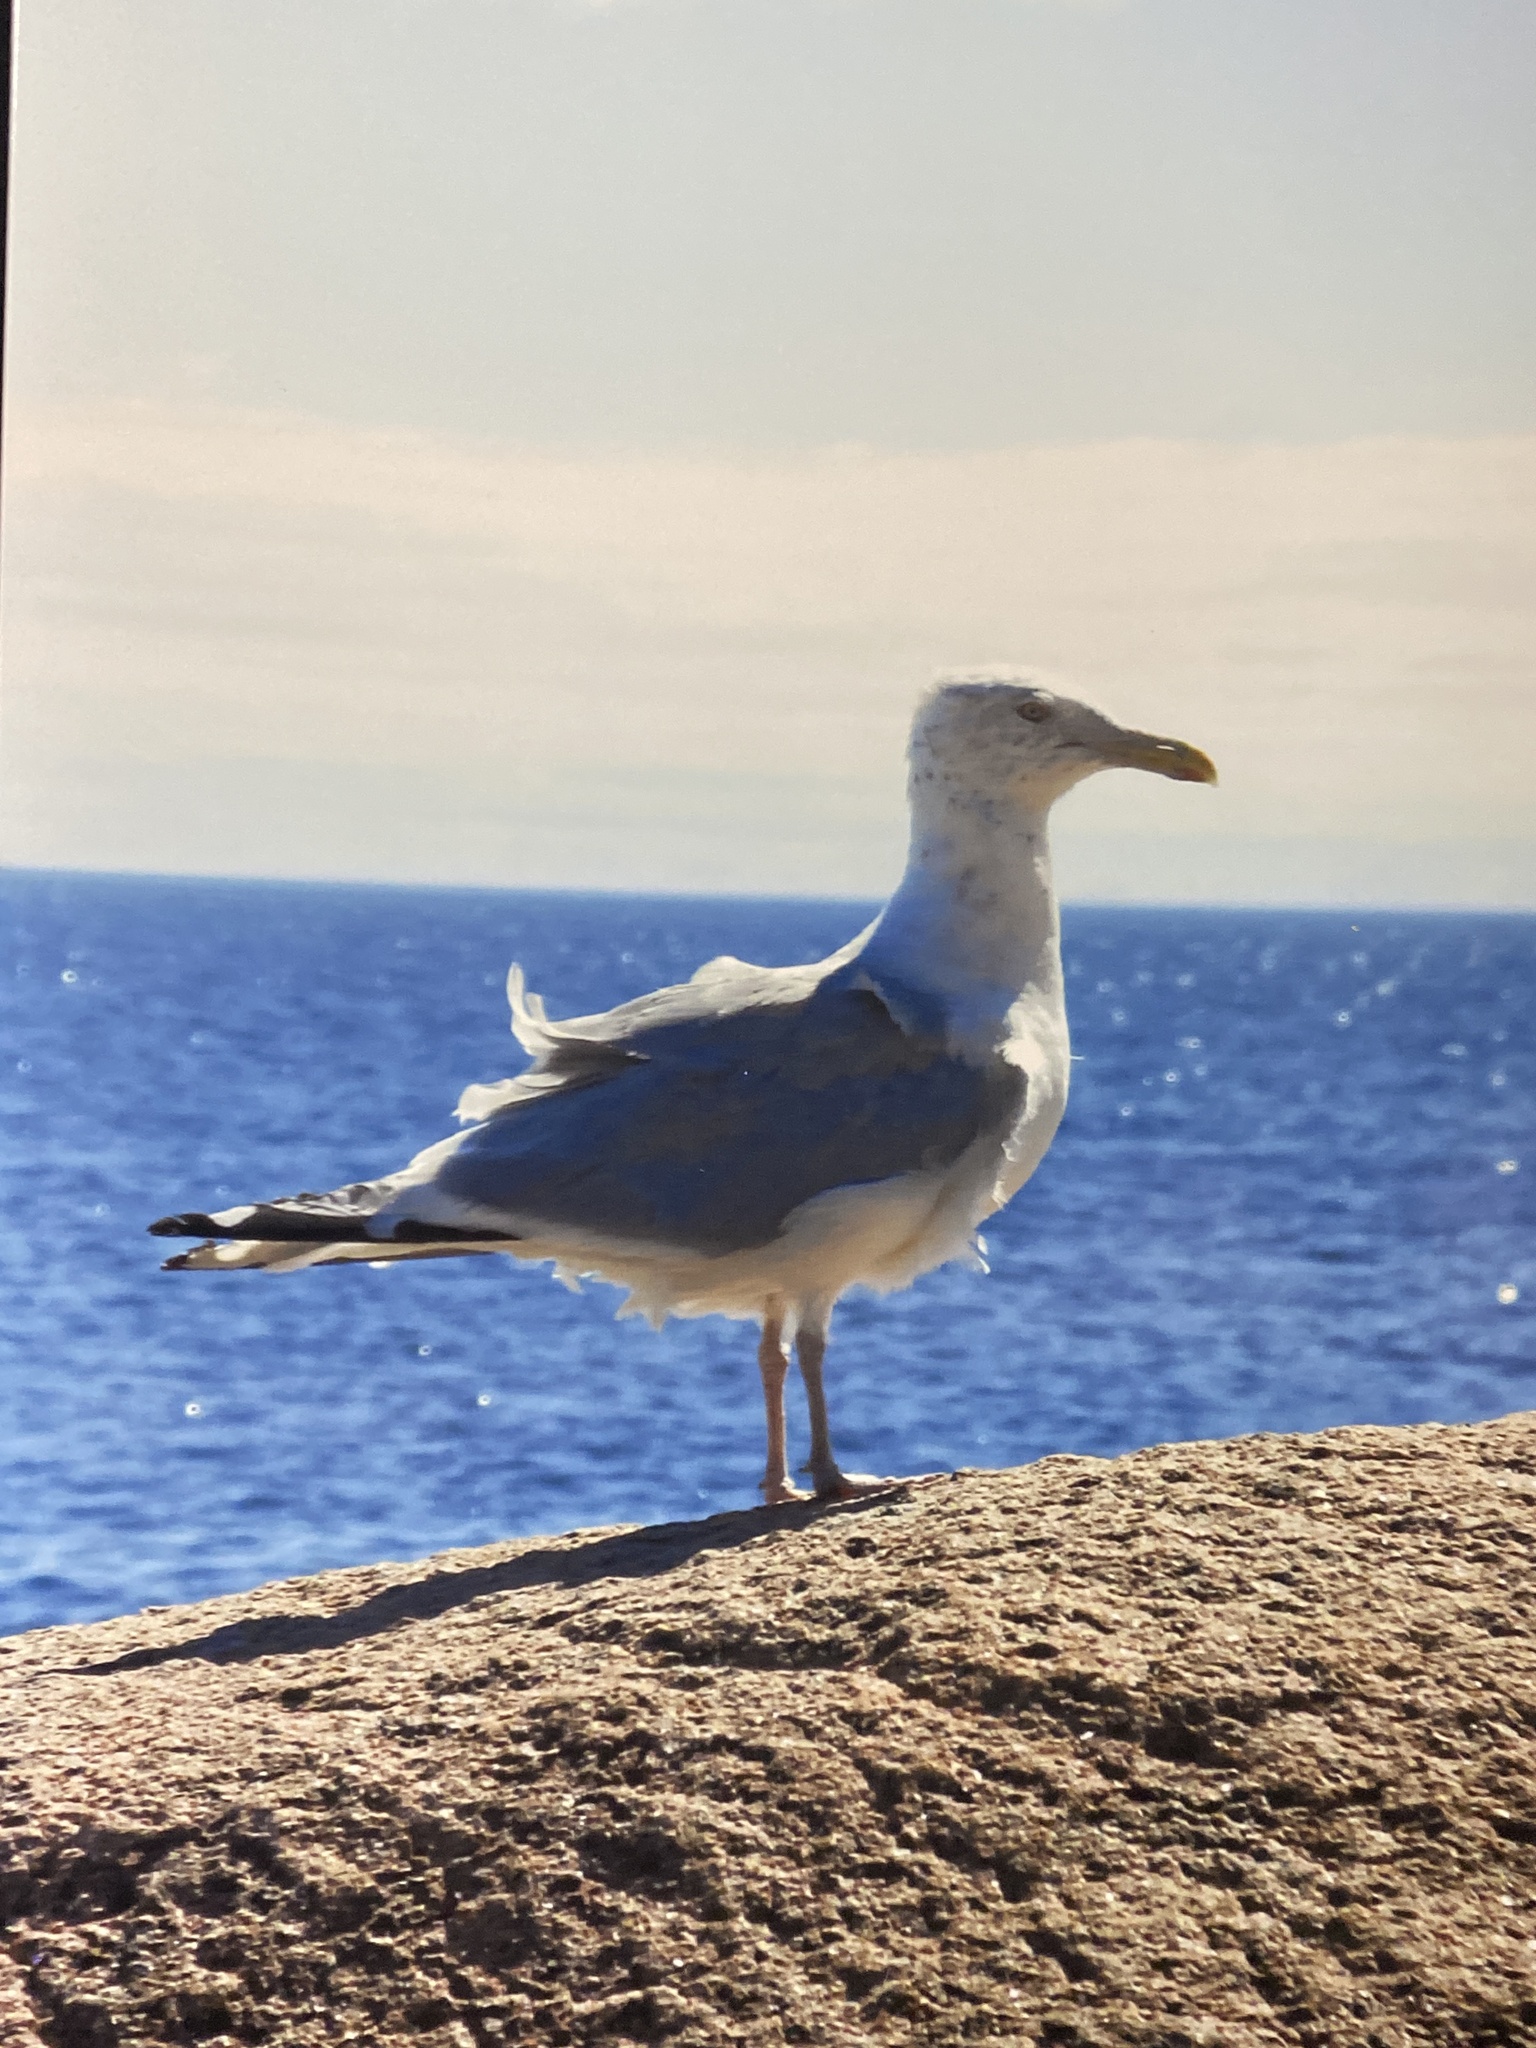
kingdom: Animalia
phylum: Chordata
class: Aves
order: Charadriiformes
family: Laridae
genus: Larus
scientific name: Larus smithsonianus
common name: American herring gull
